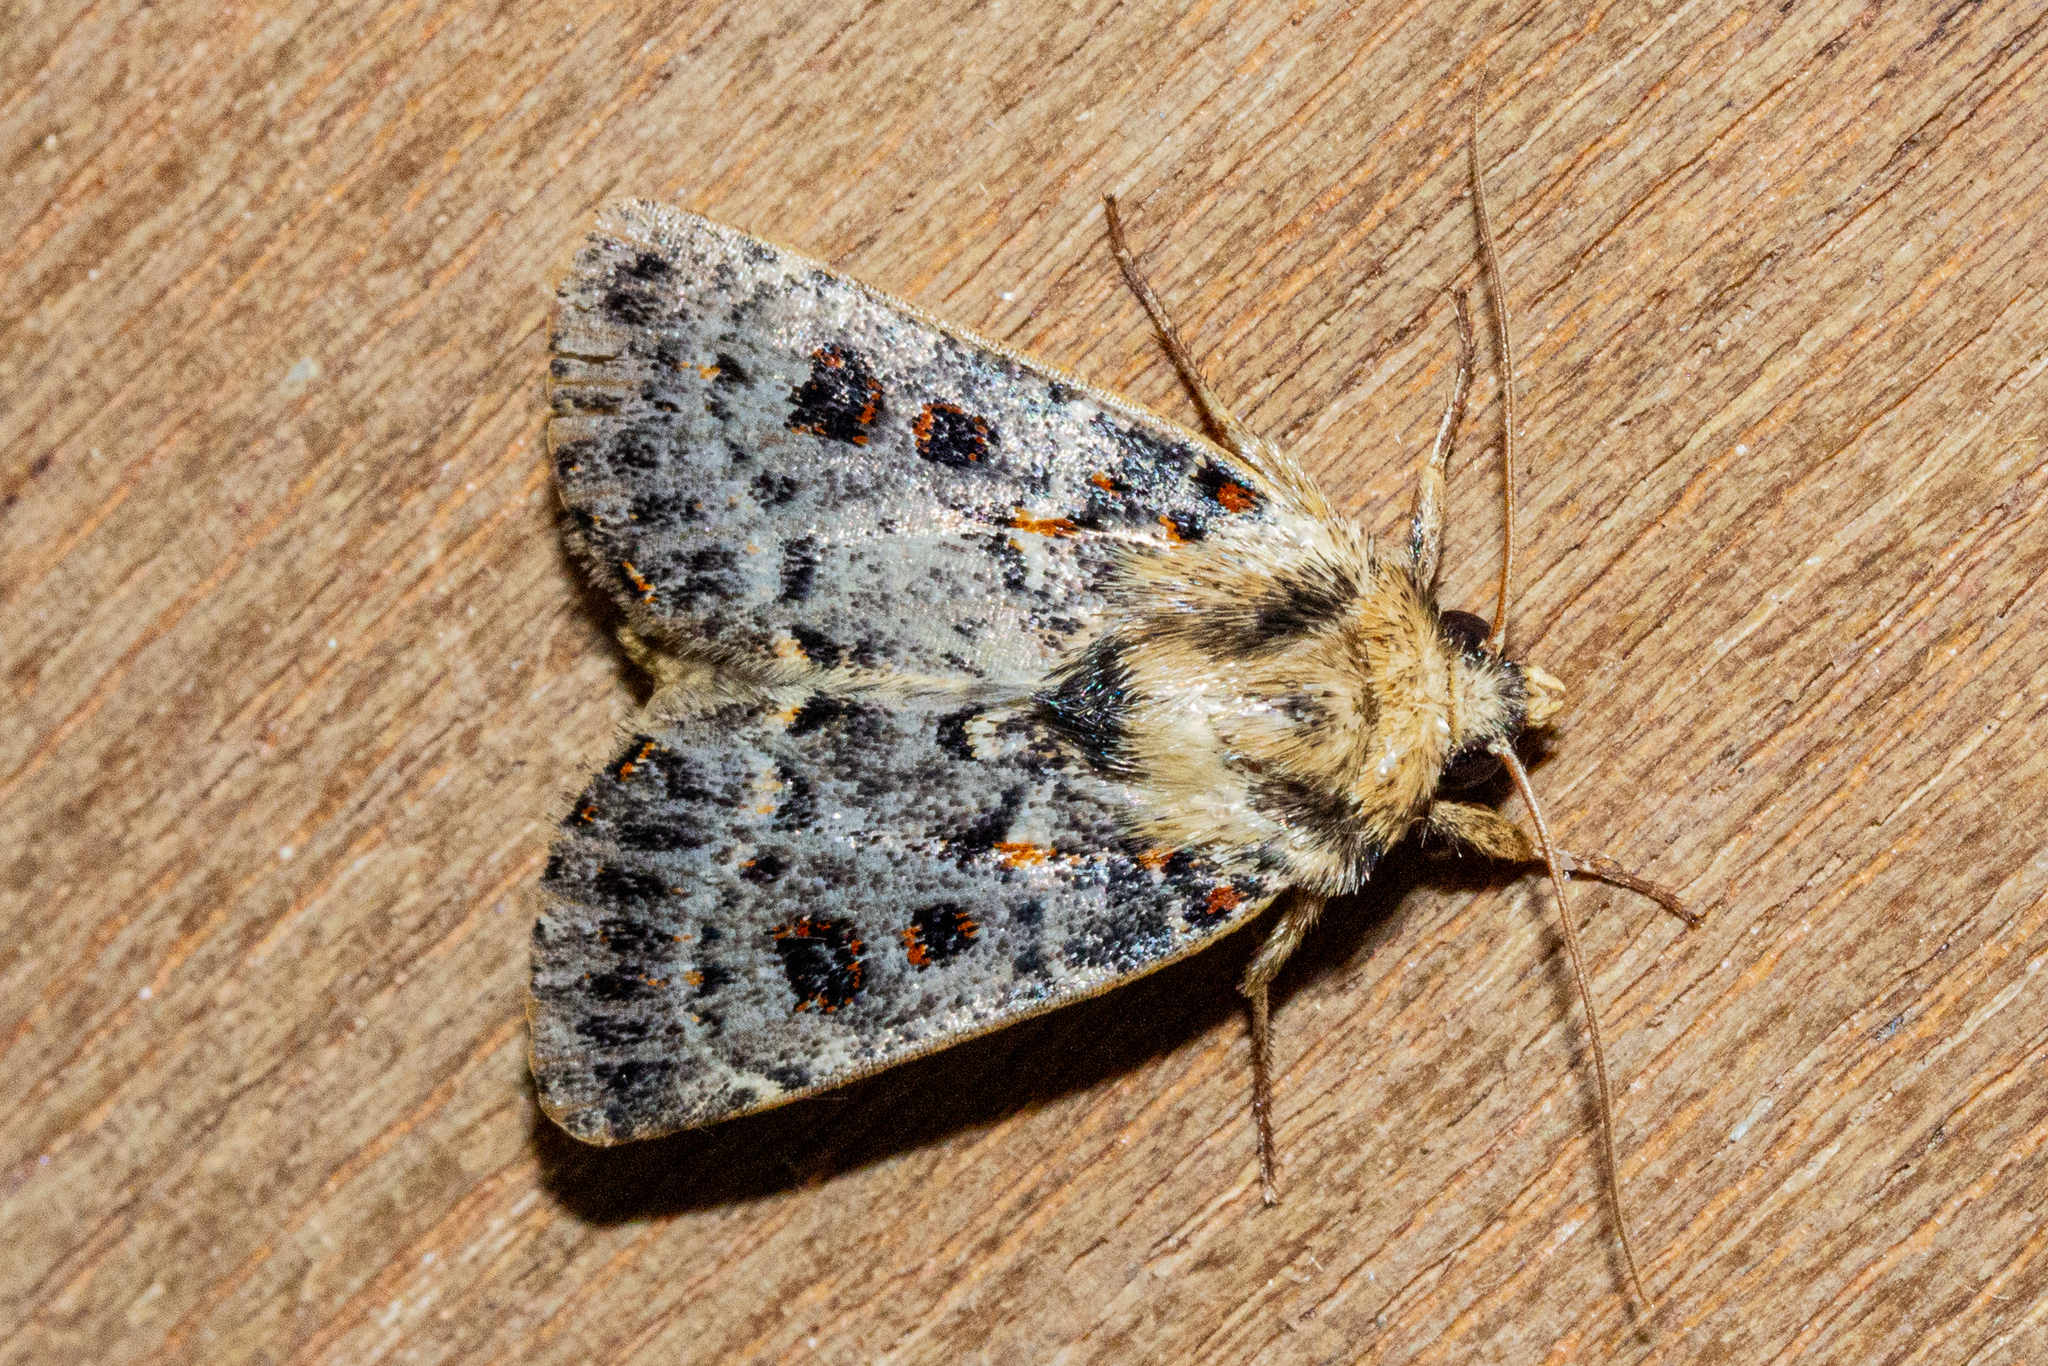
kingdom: Animalia
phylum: Arthropoda
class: Insecta
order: Lepidoptera
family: Noctuidae
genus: Proteuxoa
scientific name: Proteuxoa sanguinipuncta
